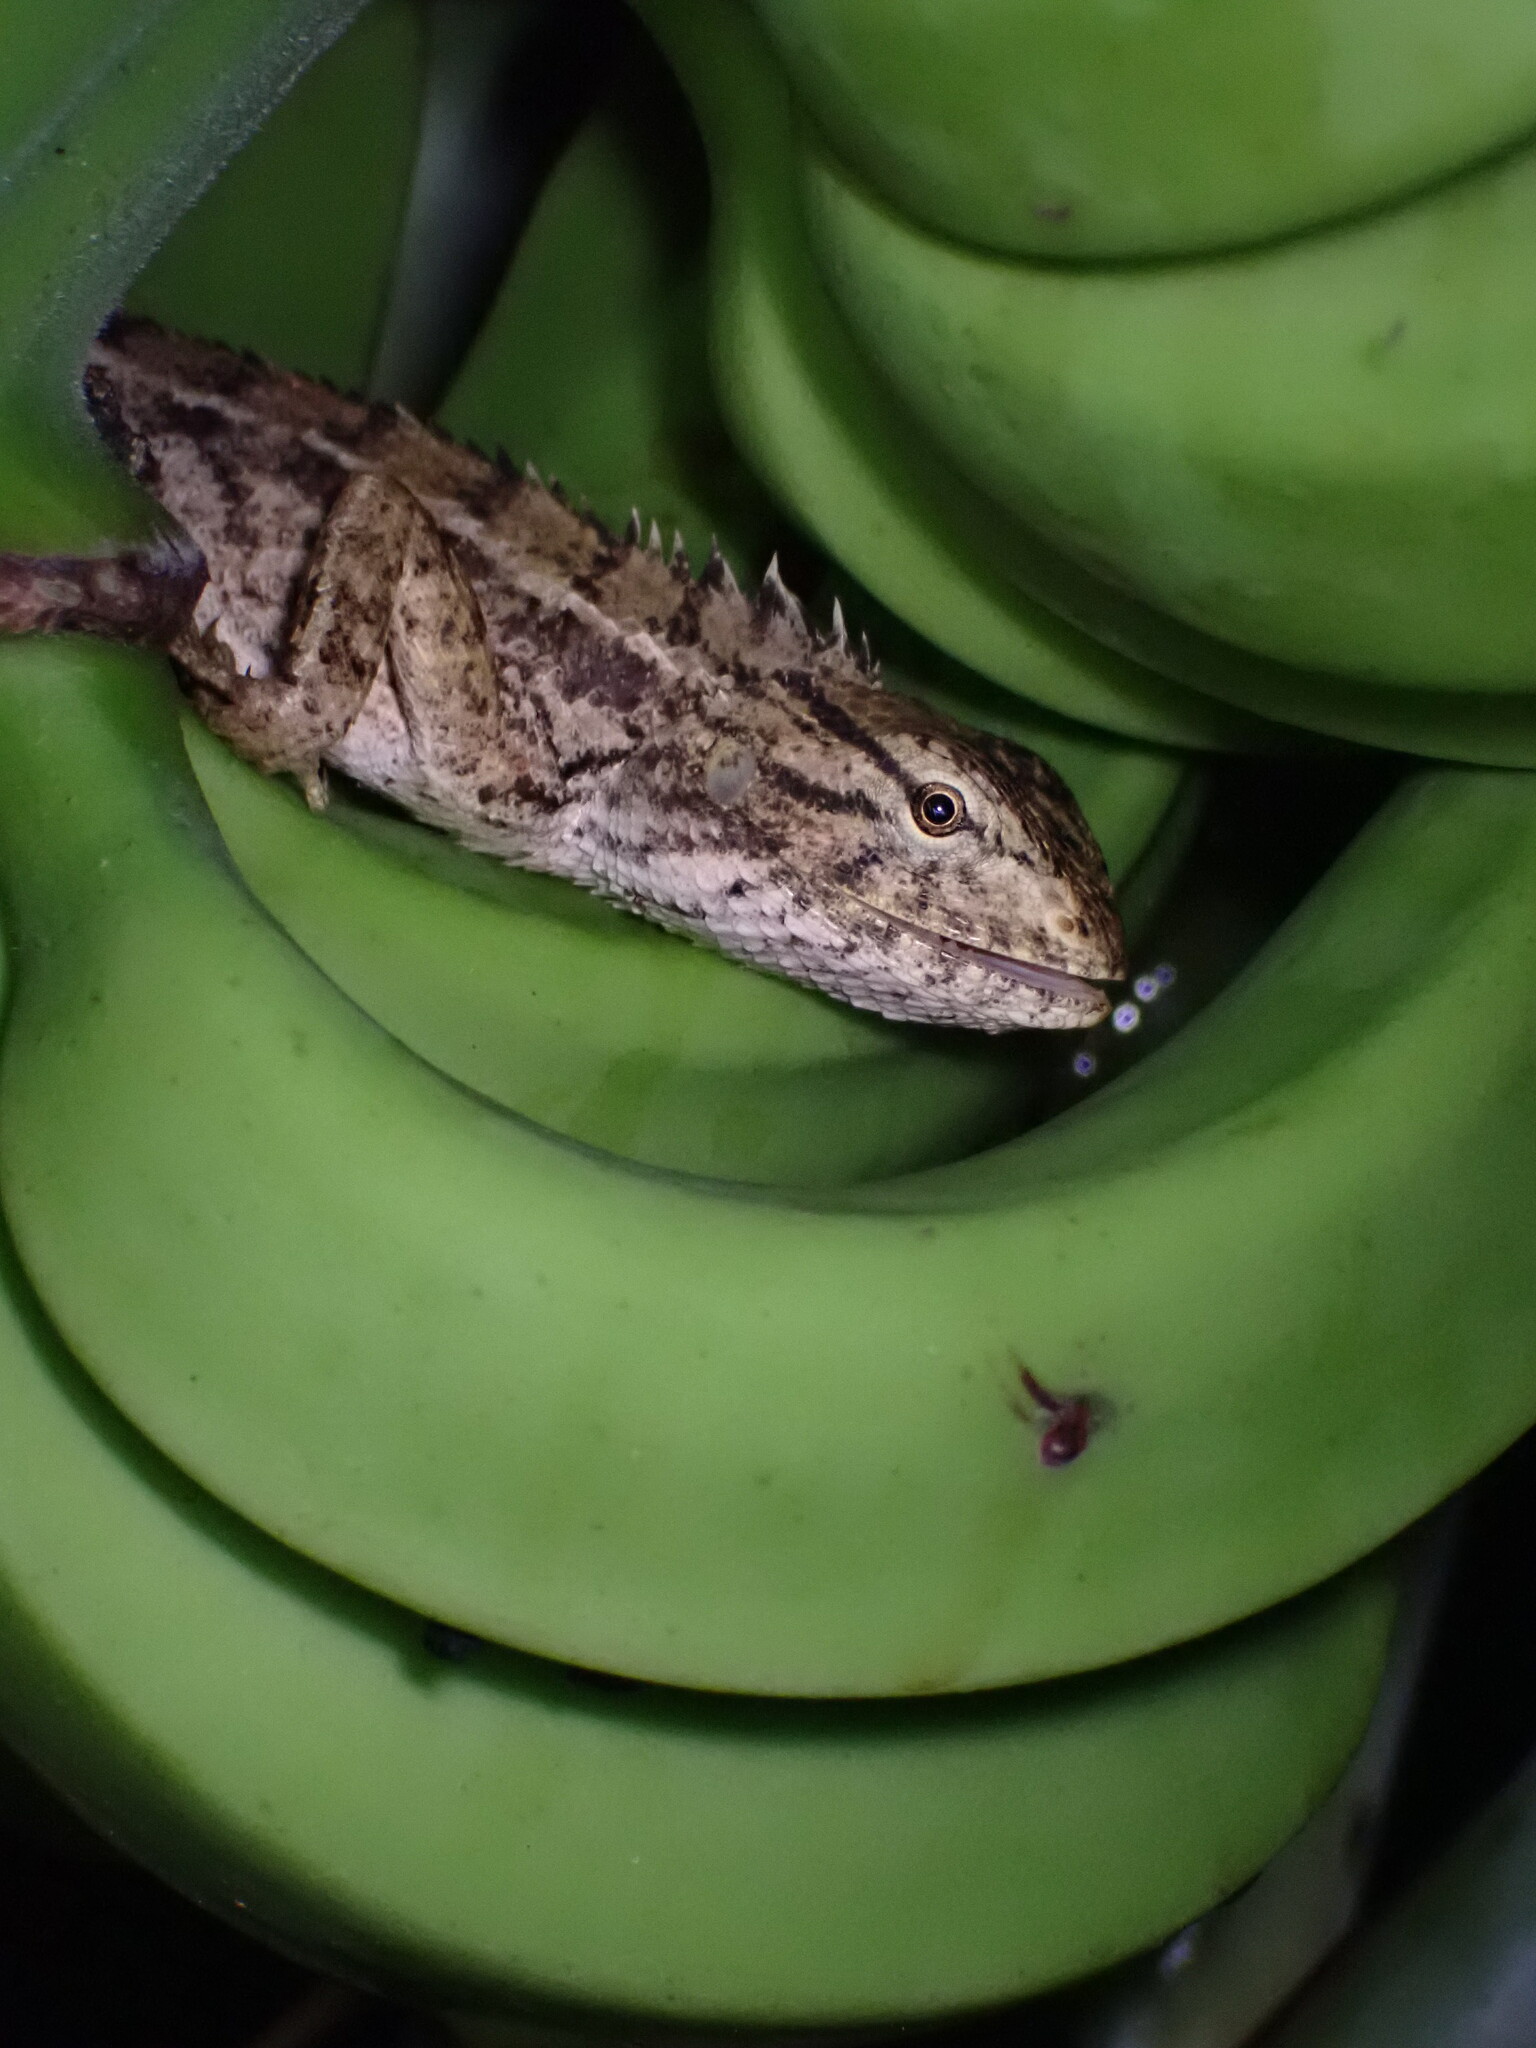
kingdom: Animalia
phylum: Chordata
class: Squamata
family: Agamidae
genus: Calotes
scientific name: Calotes versicolor
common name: Oriental garden lizard
